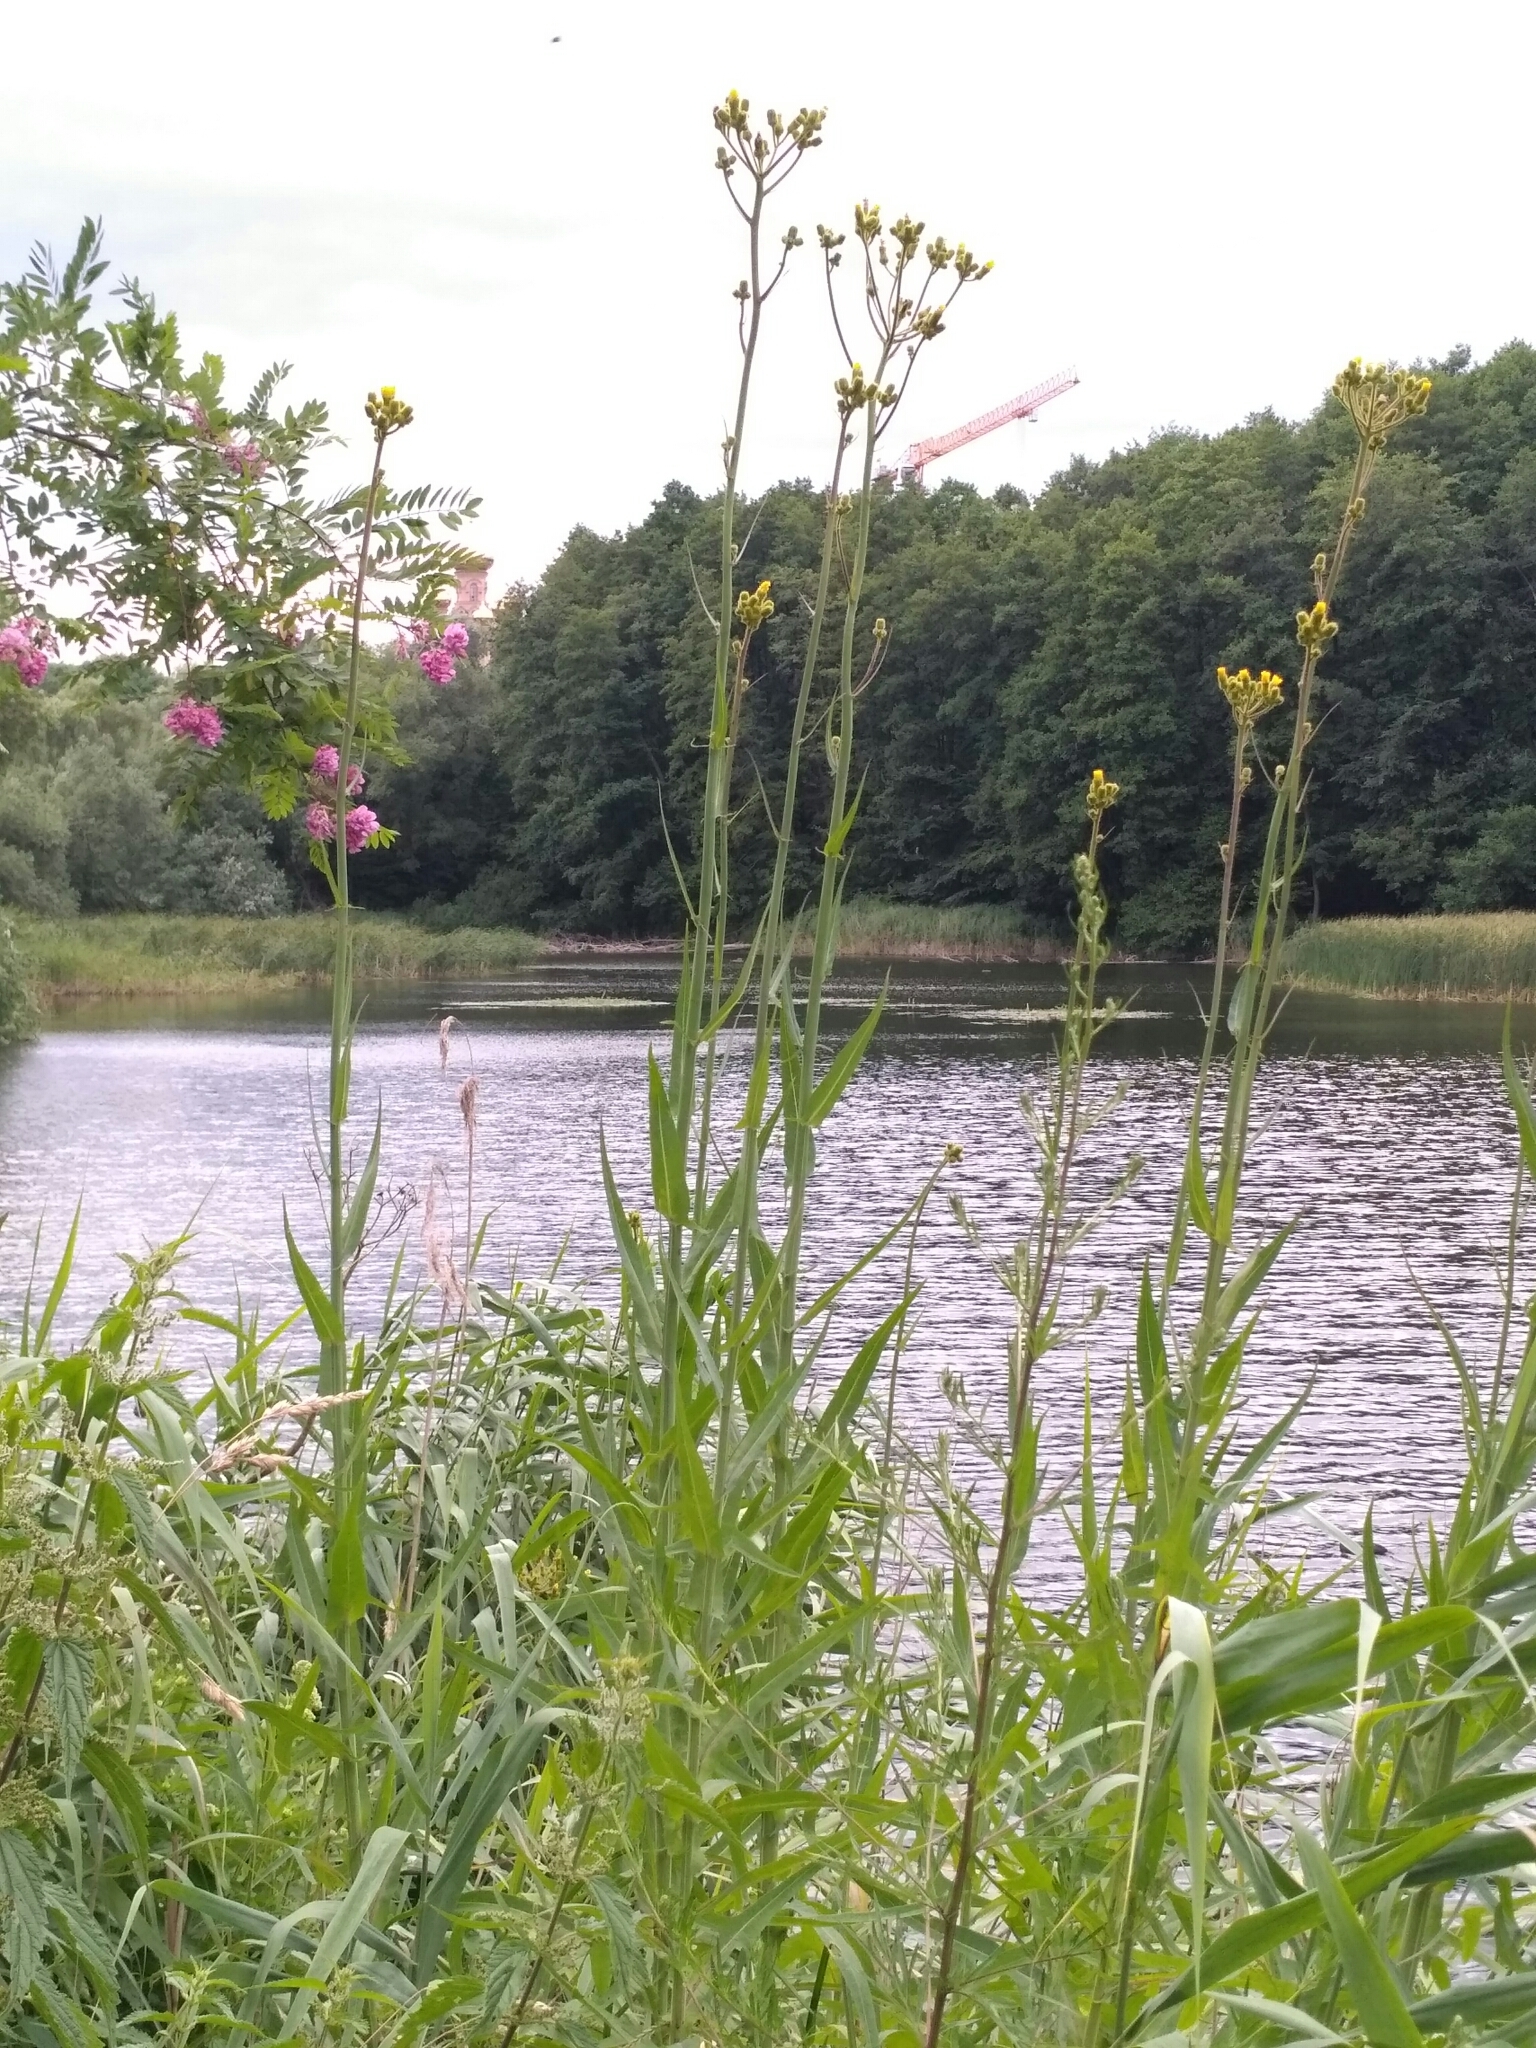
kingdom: Plantae
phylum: Tracheophyta
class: Magnoliopsida
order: Asterales
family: Asteraceae
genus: Sonchus
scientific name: Sonchus palustris
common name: Marsh sow-thistle
